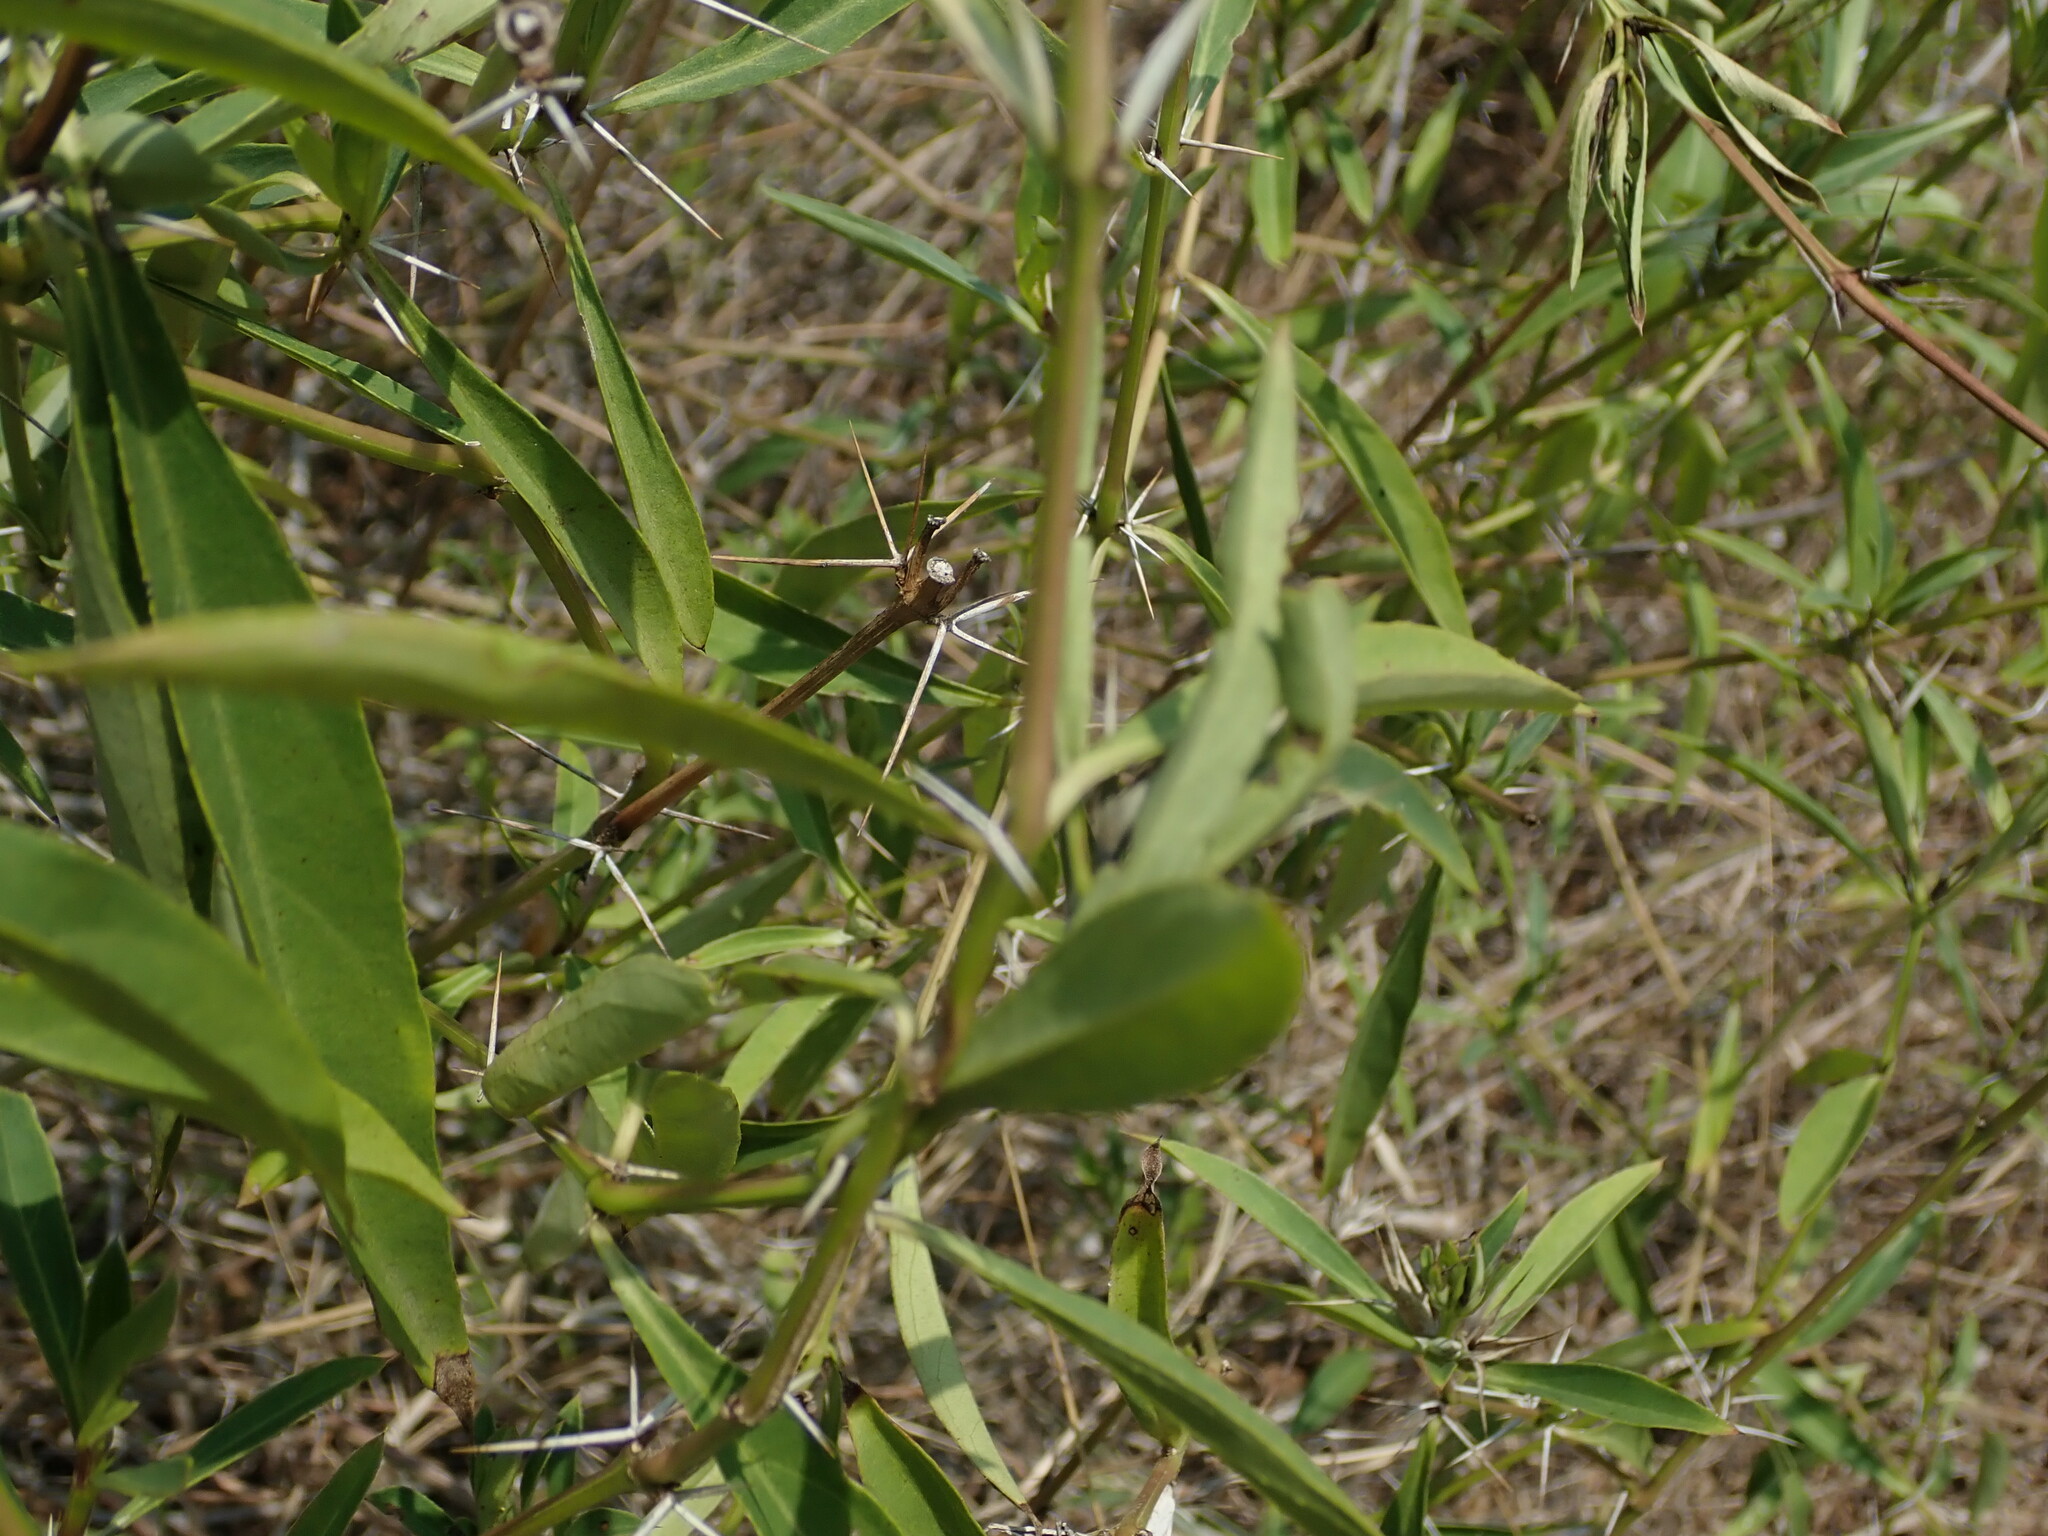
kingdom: Plantae
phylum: Tracheophyta
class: Magnoliopsida
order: Lamiales
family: Acanthaceae
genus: Barleria
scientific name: Barleria prionitis
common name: Barleria
